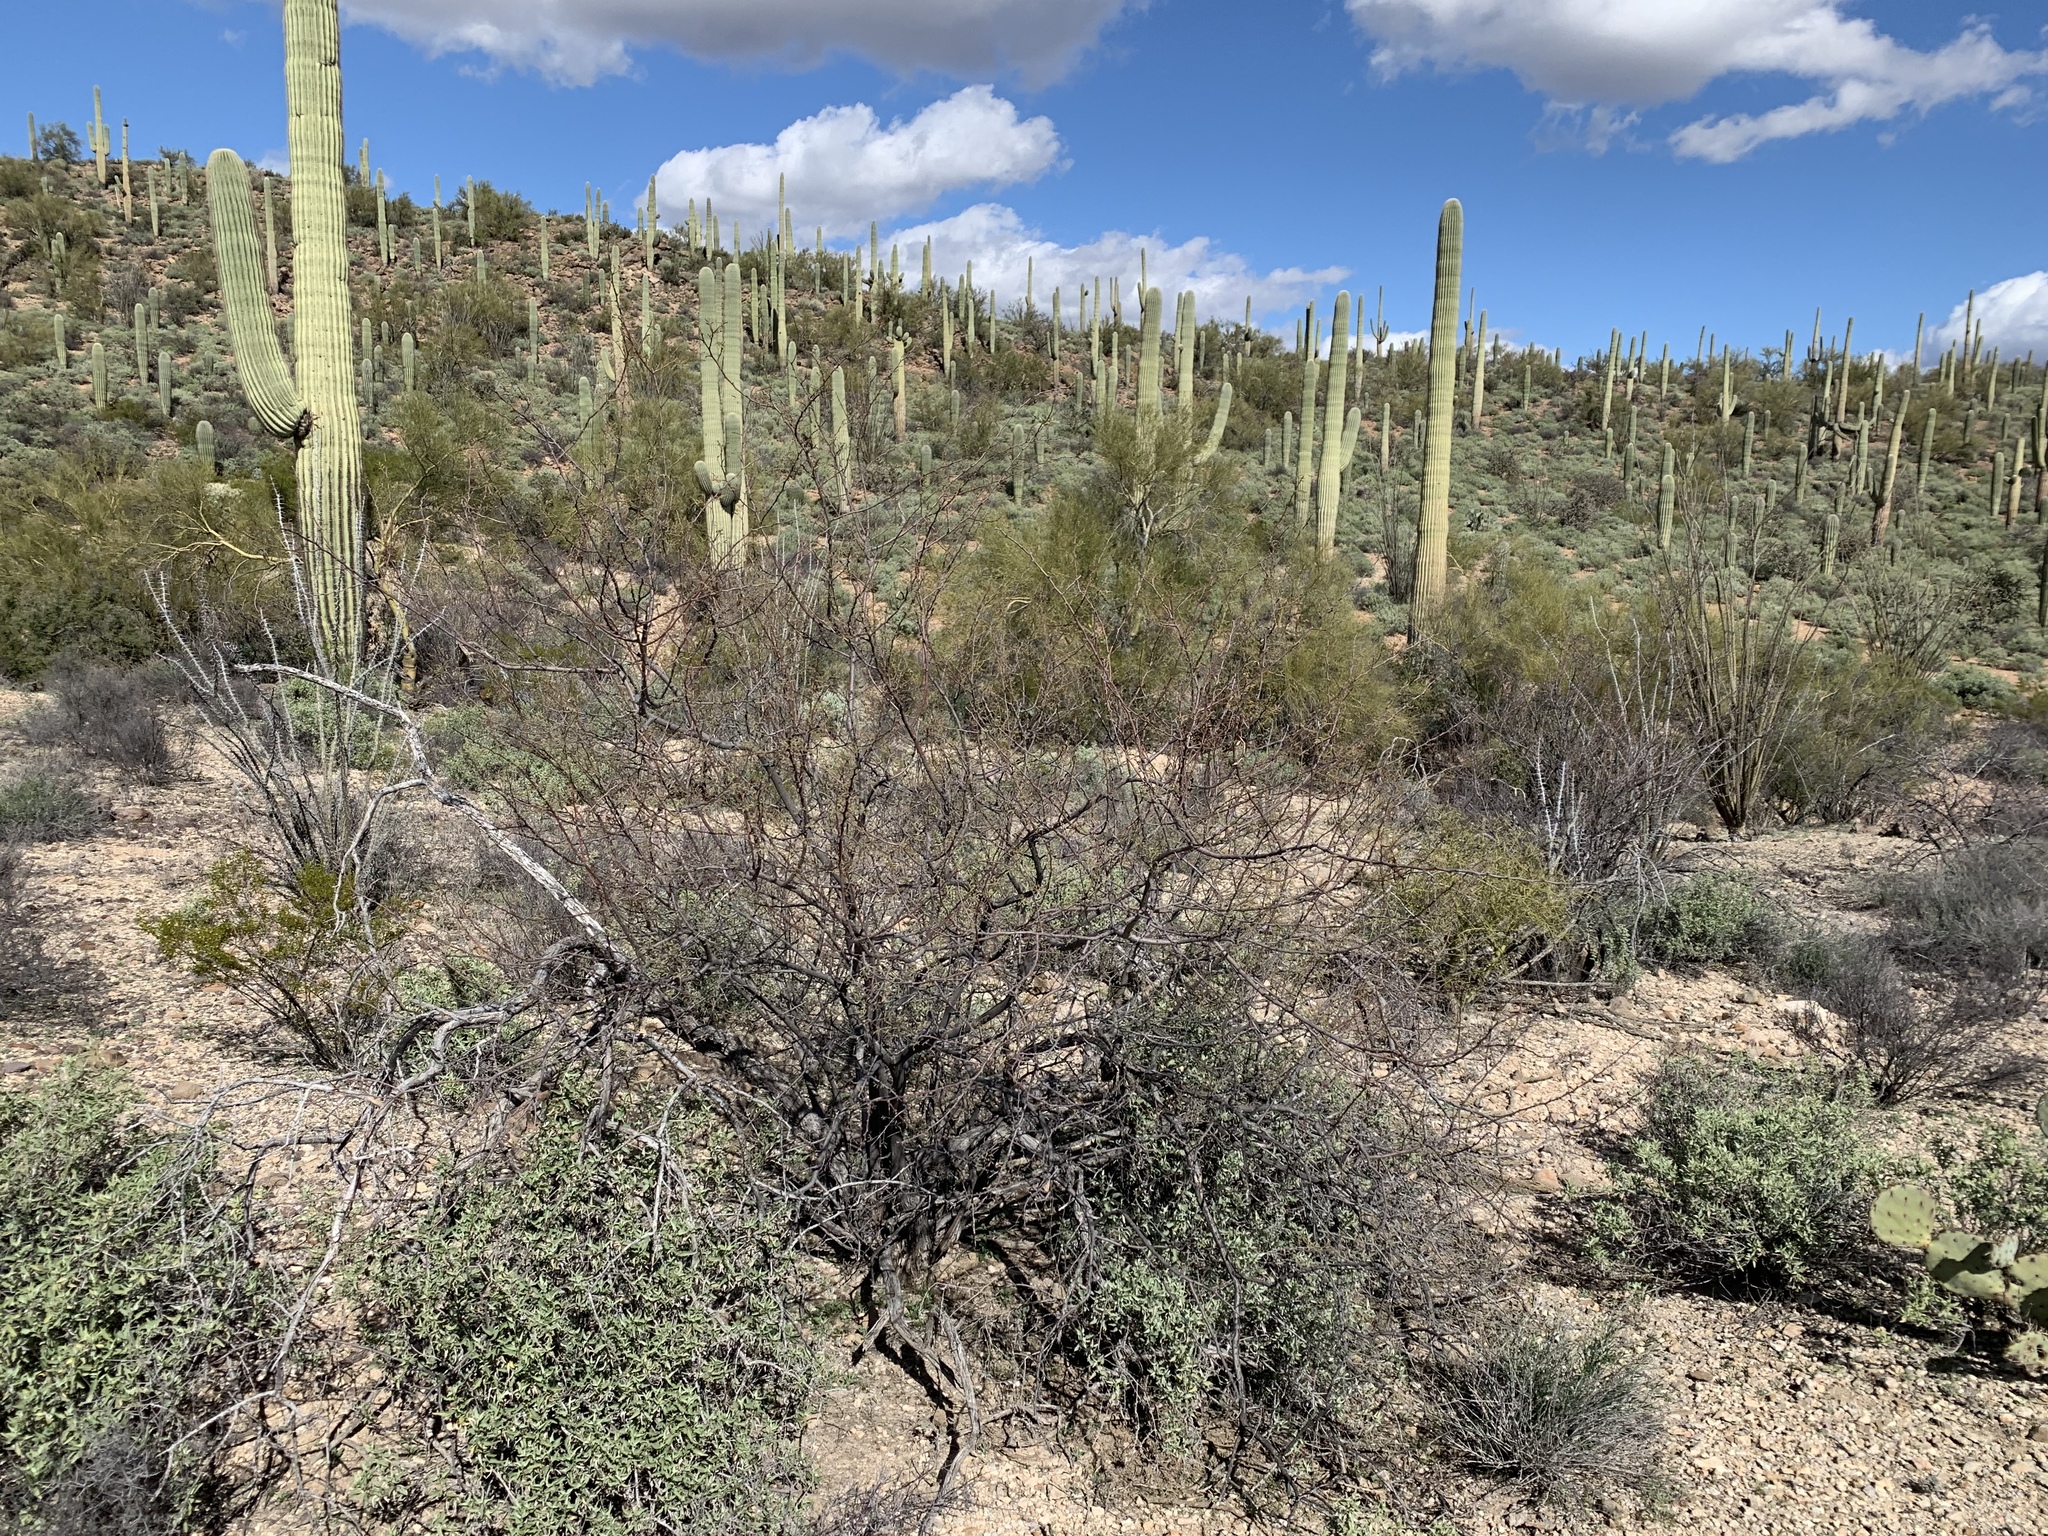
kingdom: Plantae
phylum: Tracheophyta
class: Magnoliopsida
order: Fabales
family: Fabaceae
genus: Vachellia
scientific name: Vachellia constricta
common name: Mescat acacia
